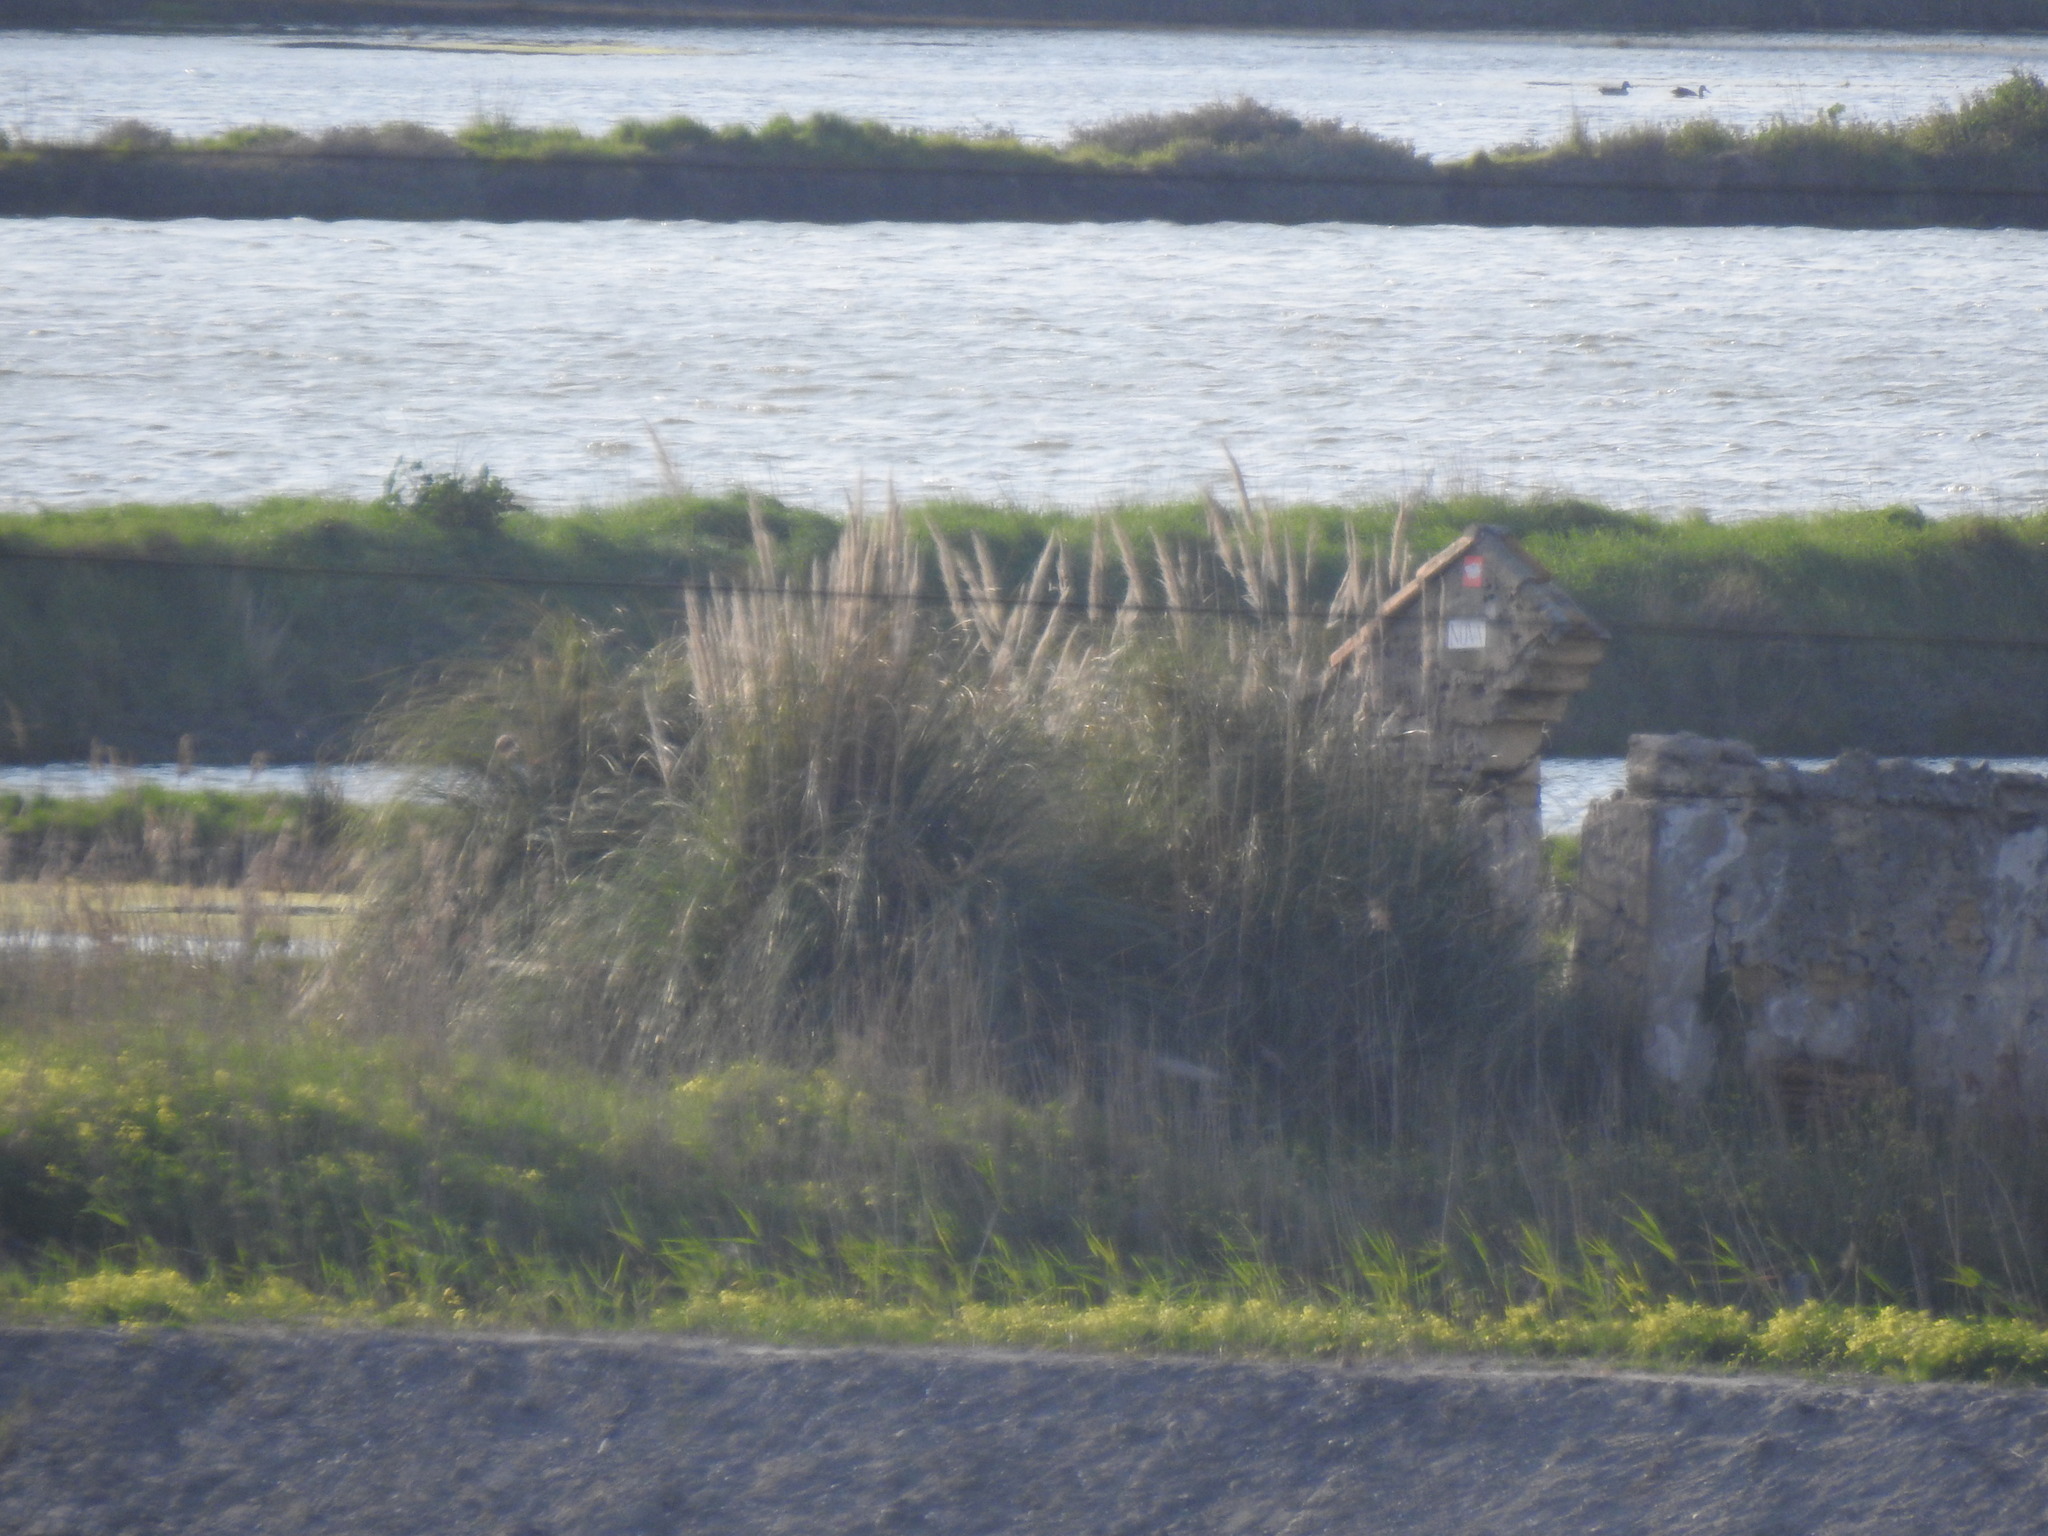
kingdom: Plantae
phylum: Tracheophyta
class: Liliopsida
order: Poales
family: Poaceae
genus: Cortaderia
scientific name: Cortaderia selloana
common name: Uruguayan pampas grass
